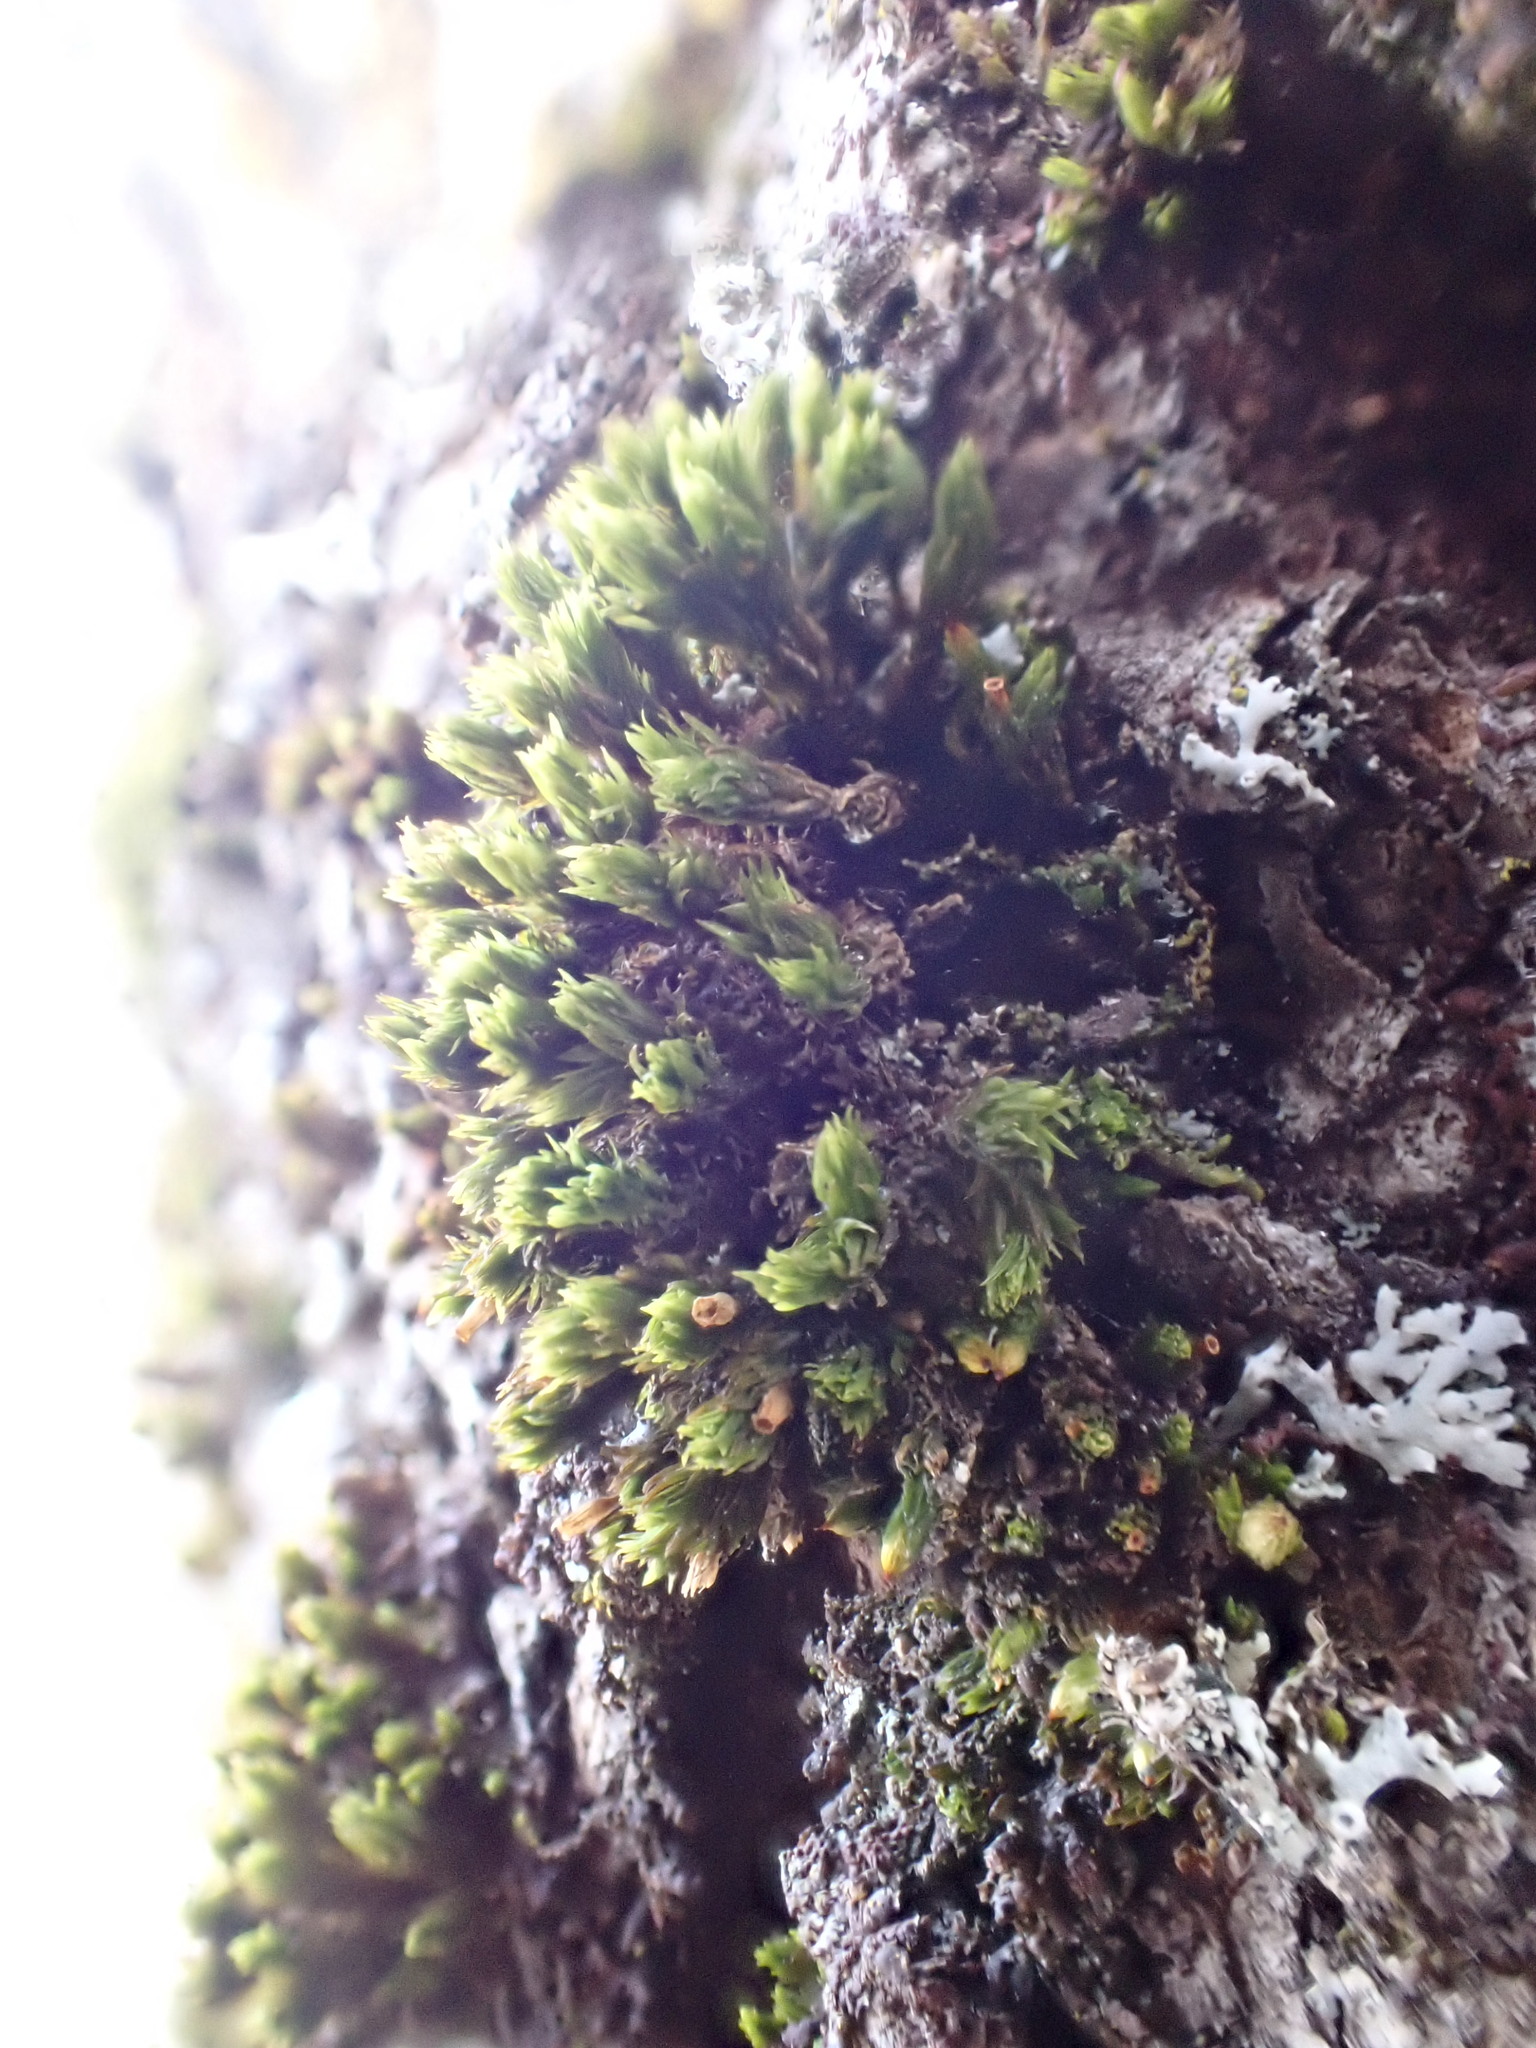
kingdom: Plantae
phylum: Bryophyta
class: Bryopsida
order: Orthotrichales
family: Orthotrichaceae
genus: Orthotrichum
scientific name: Orthotrichum consobrinum
